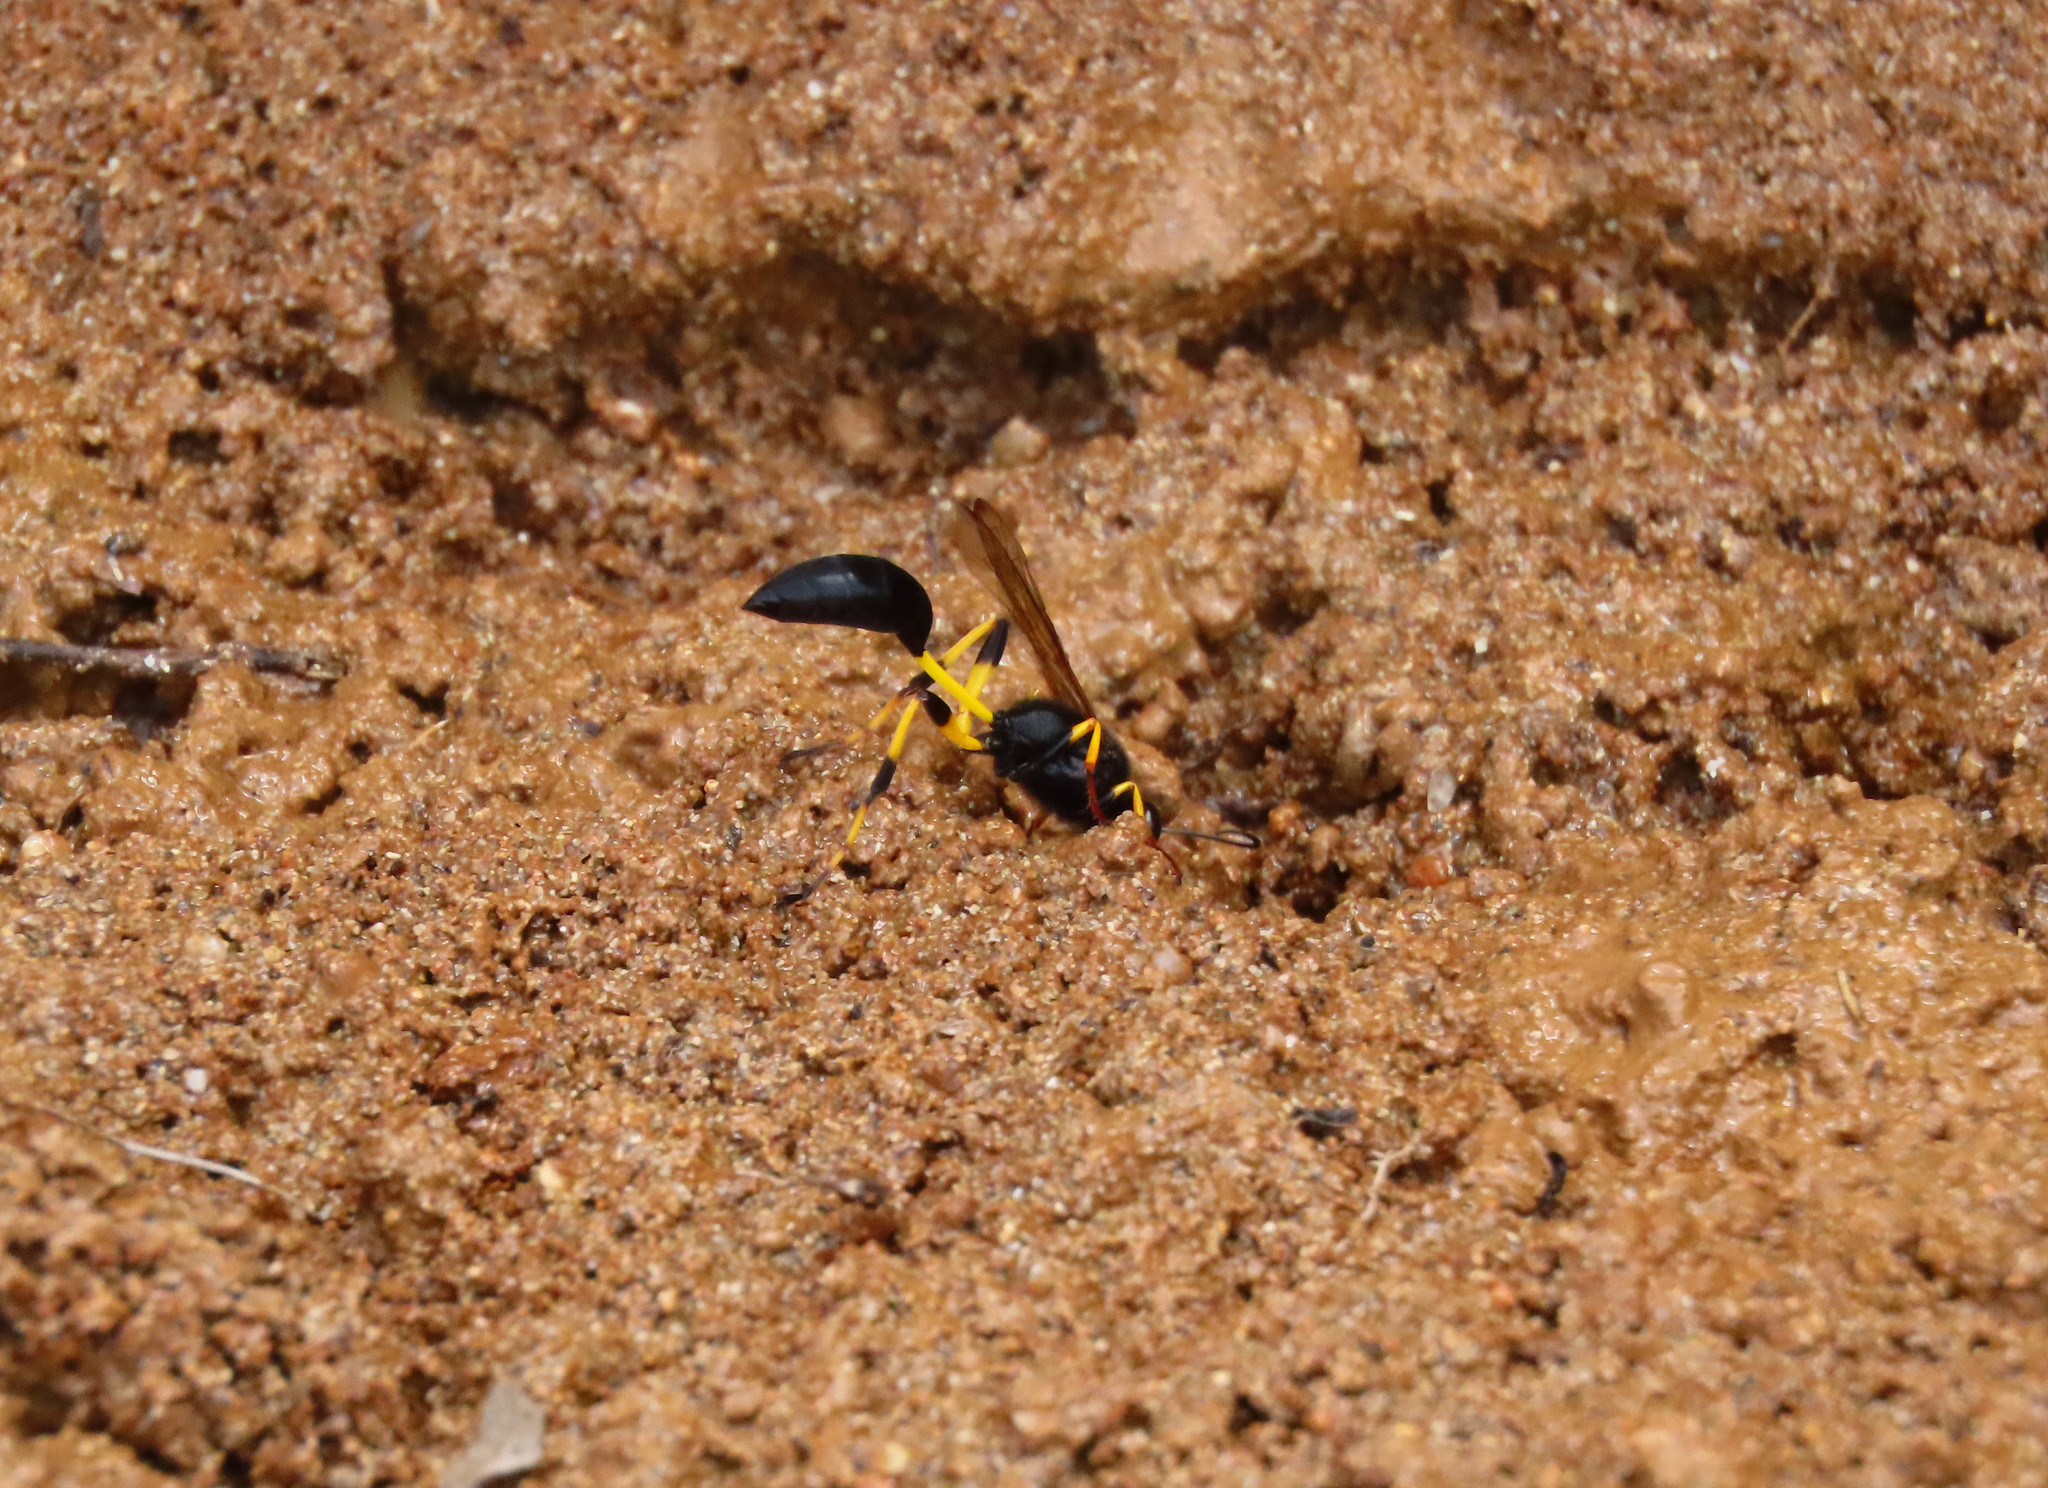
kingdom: Animalia
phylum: Arthropoda
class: Insecta
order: Hymenoptera
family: Sphecidae
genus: Sceliphron
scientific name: Sceliphron destillatorium
